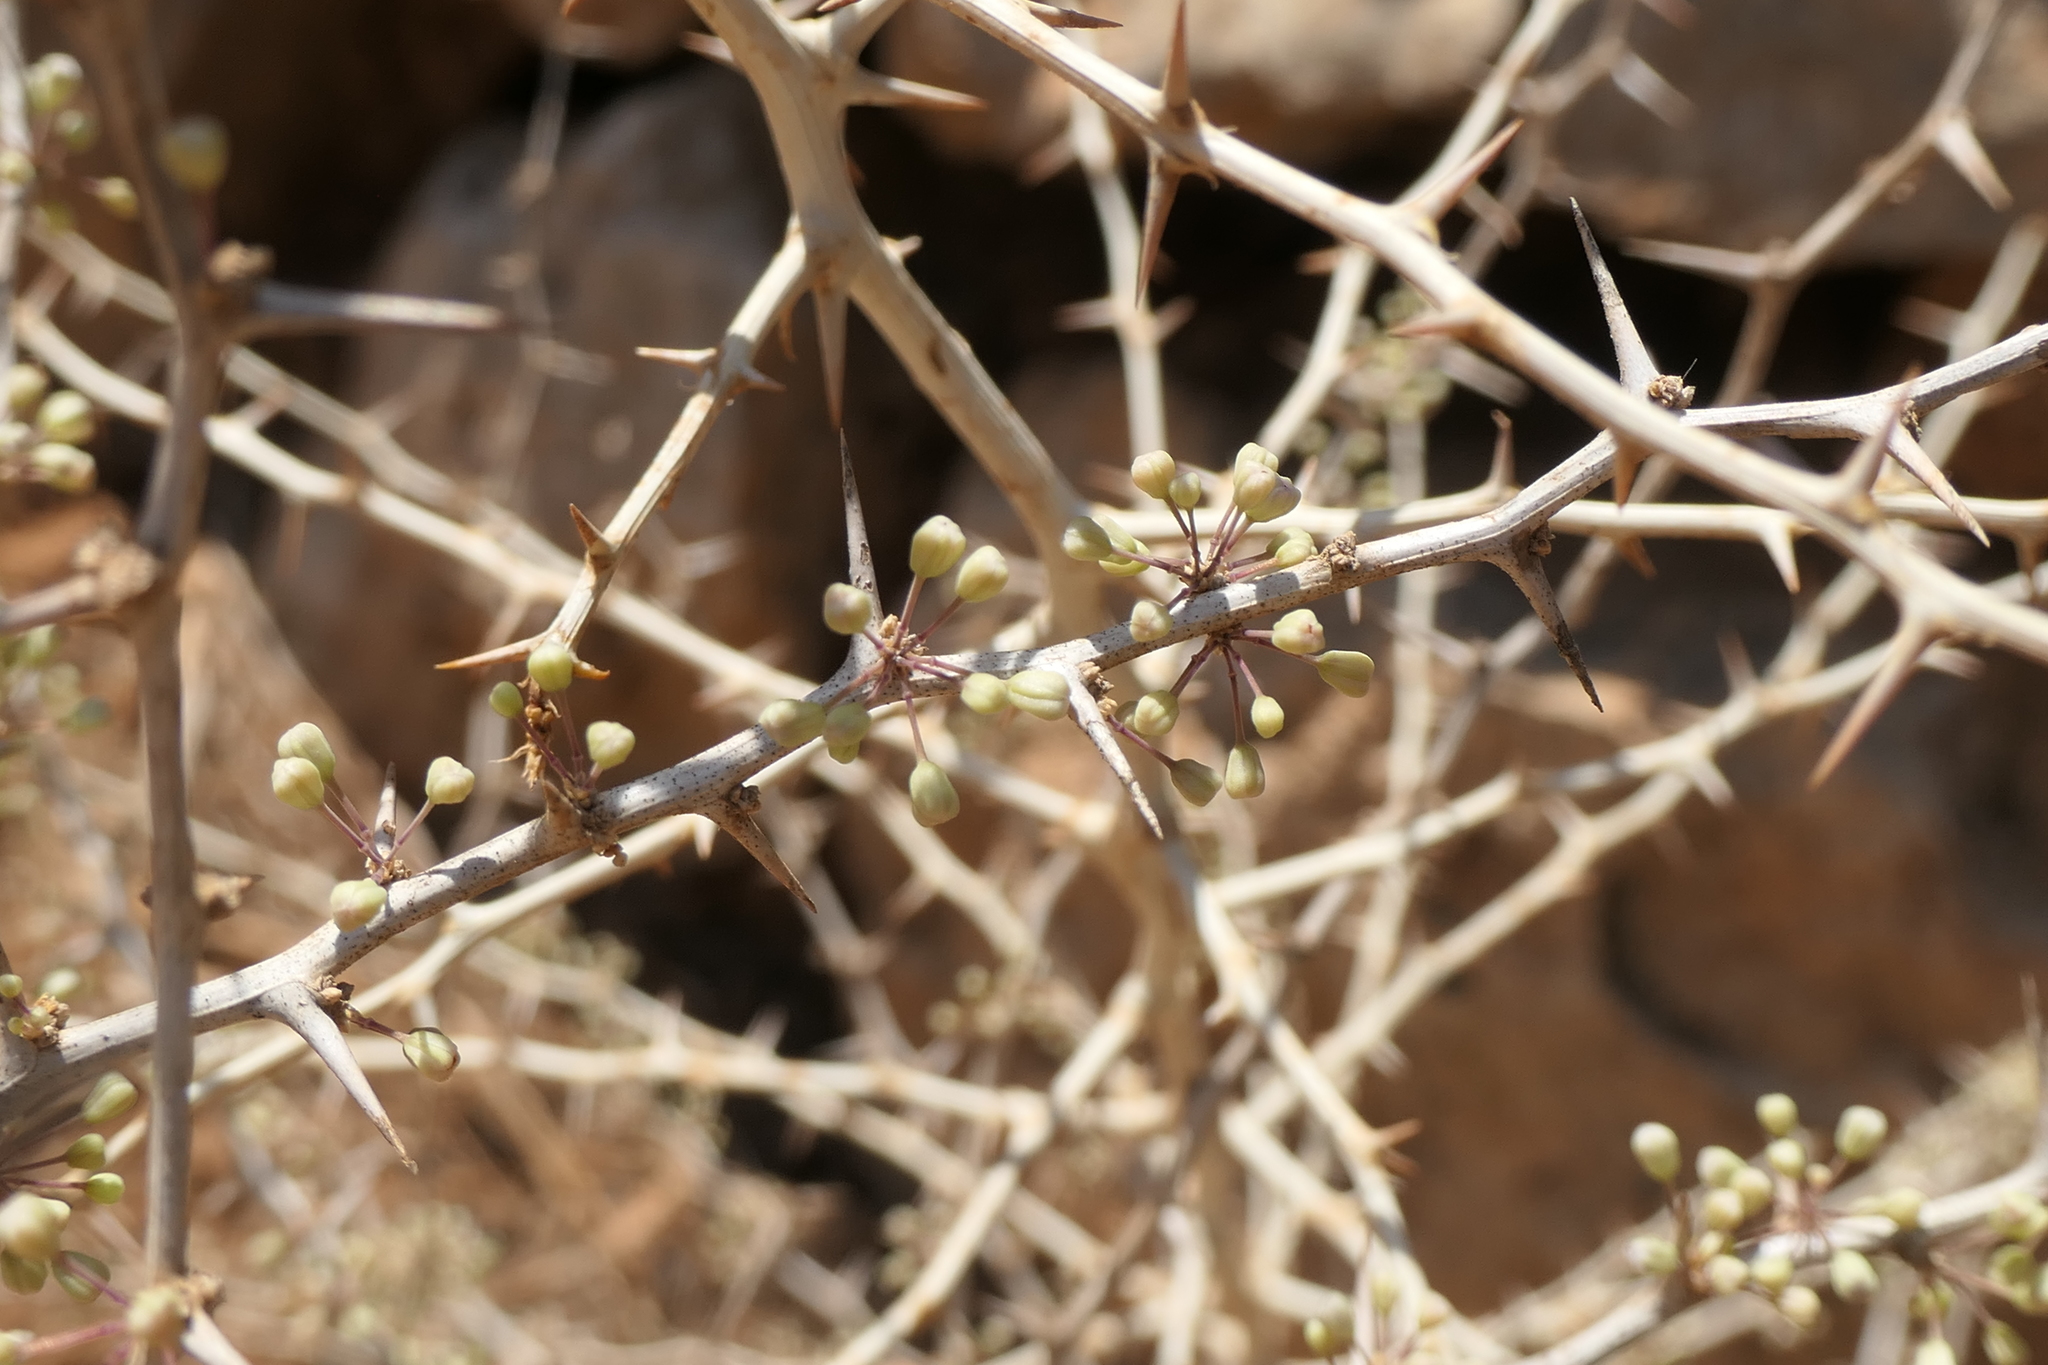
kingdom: Plantae
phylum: Tracheophyta
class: Liliopsida
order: Asparagales
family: Asparagaceae
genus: Asparagus
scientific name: Asparagus albus
